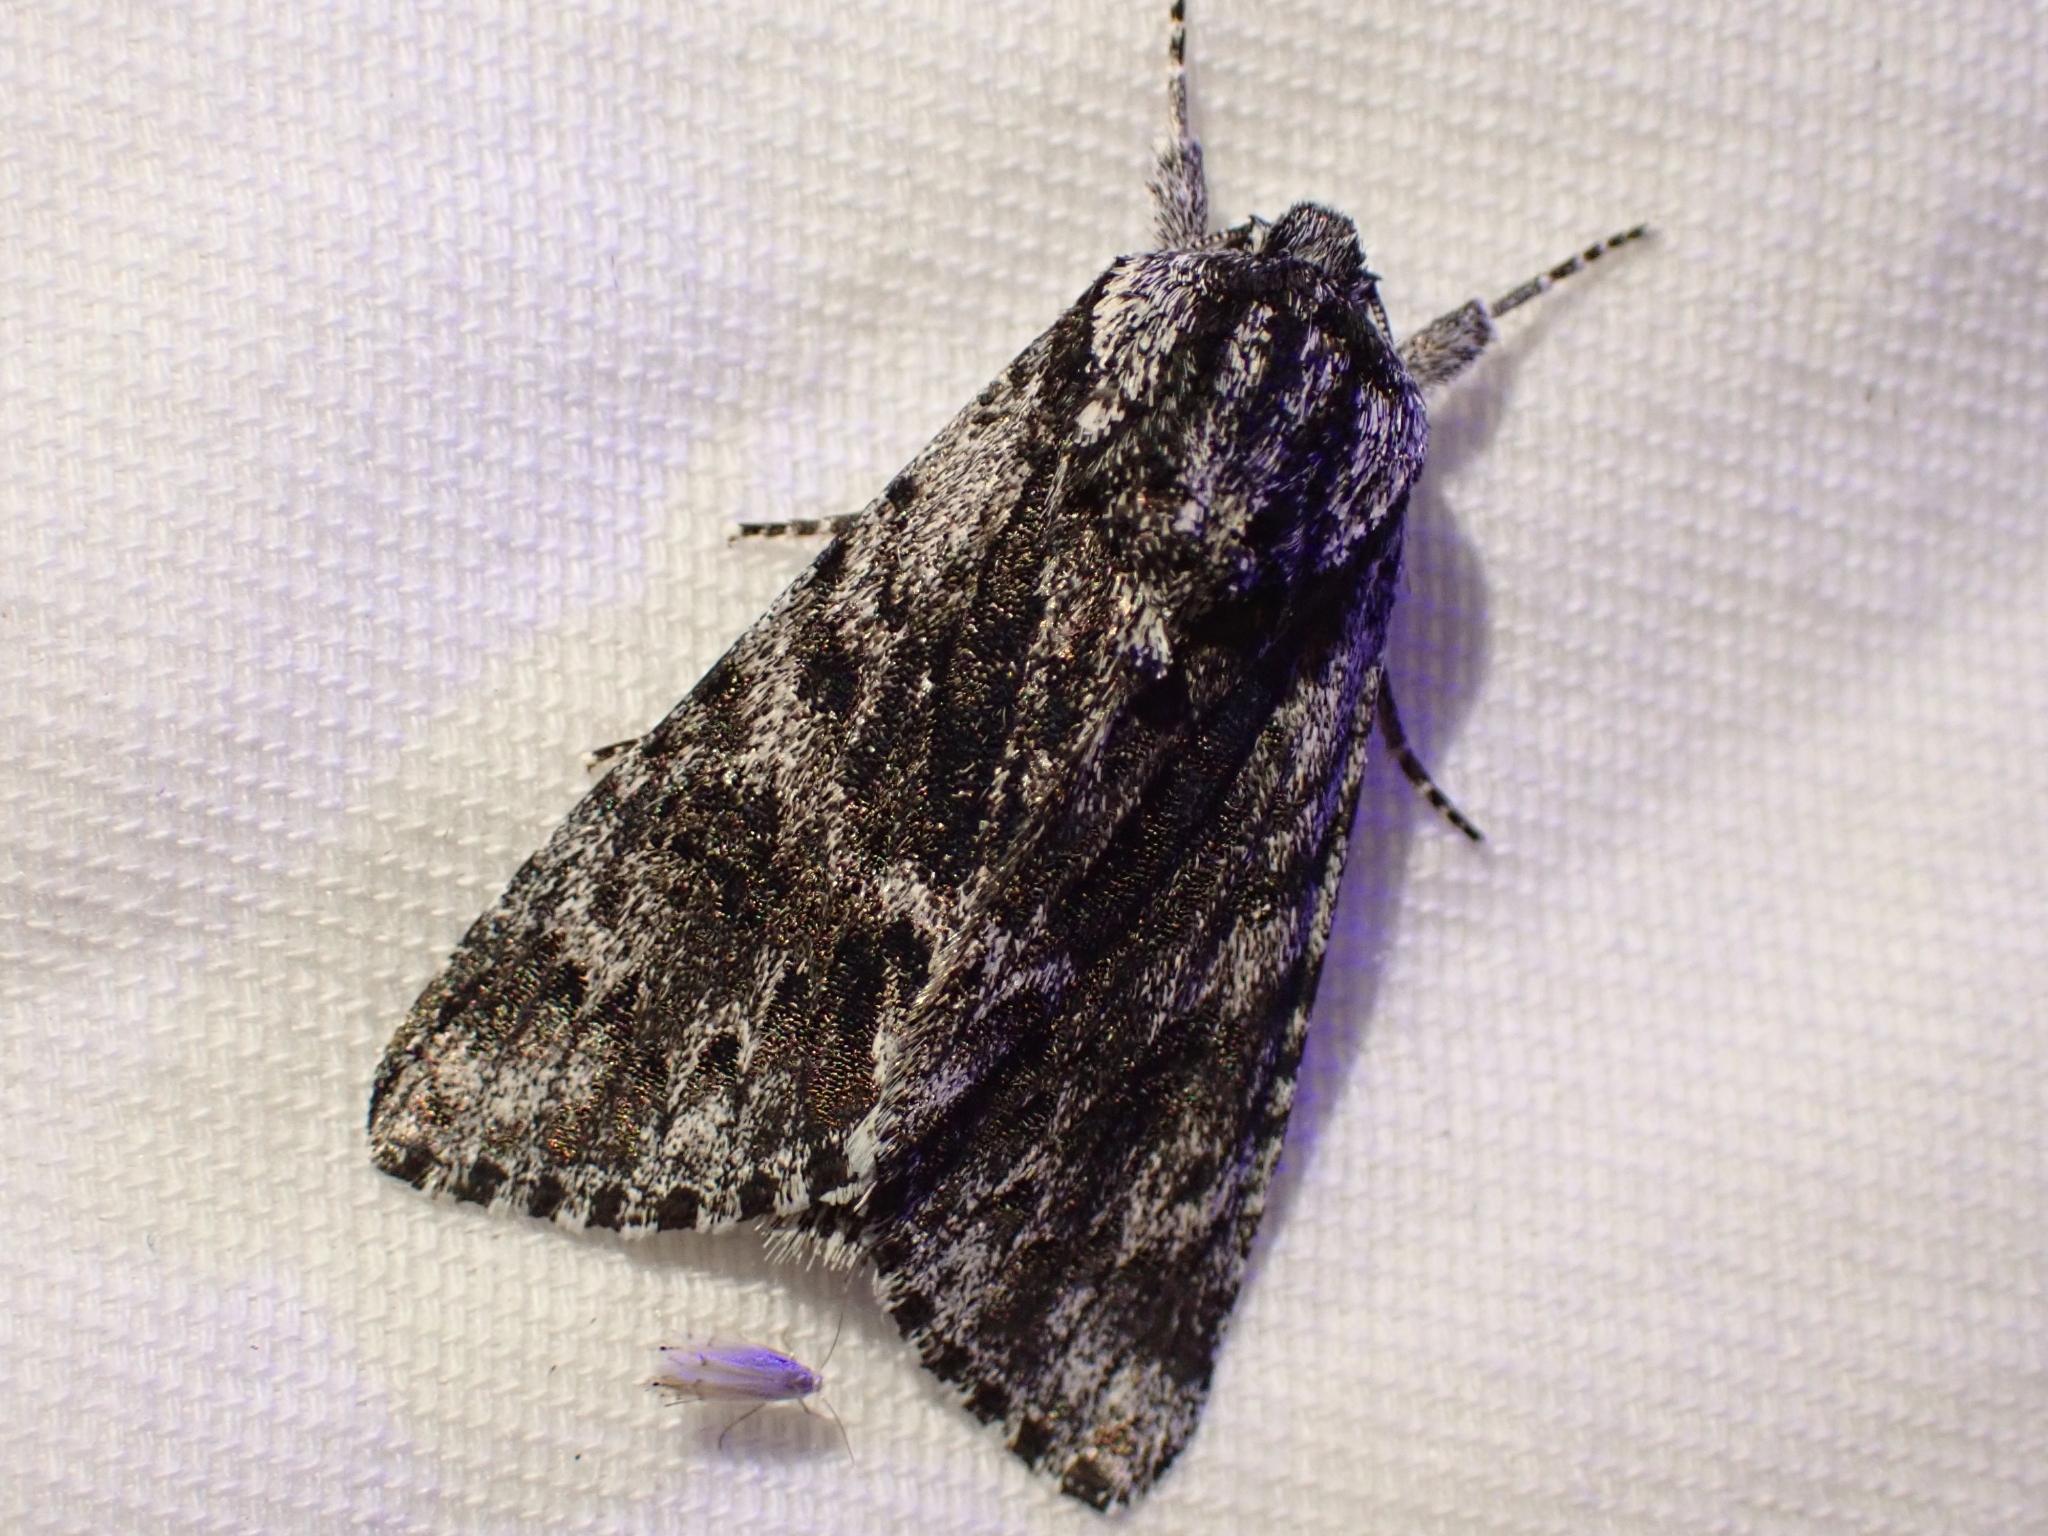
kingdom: Animalia
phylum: Arthropoda
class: Insecta
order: Lepidoptera
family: Noctuidae
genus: Acronicta
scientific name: Acronicta perdita
